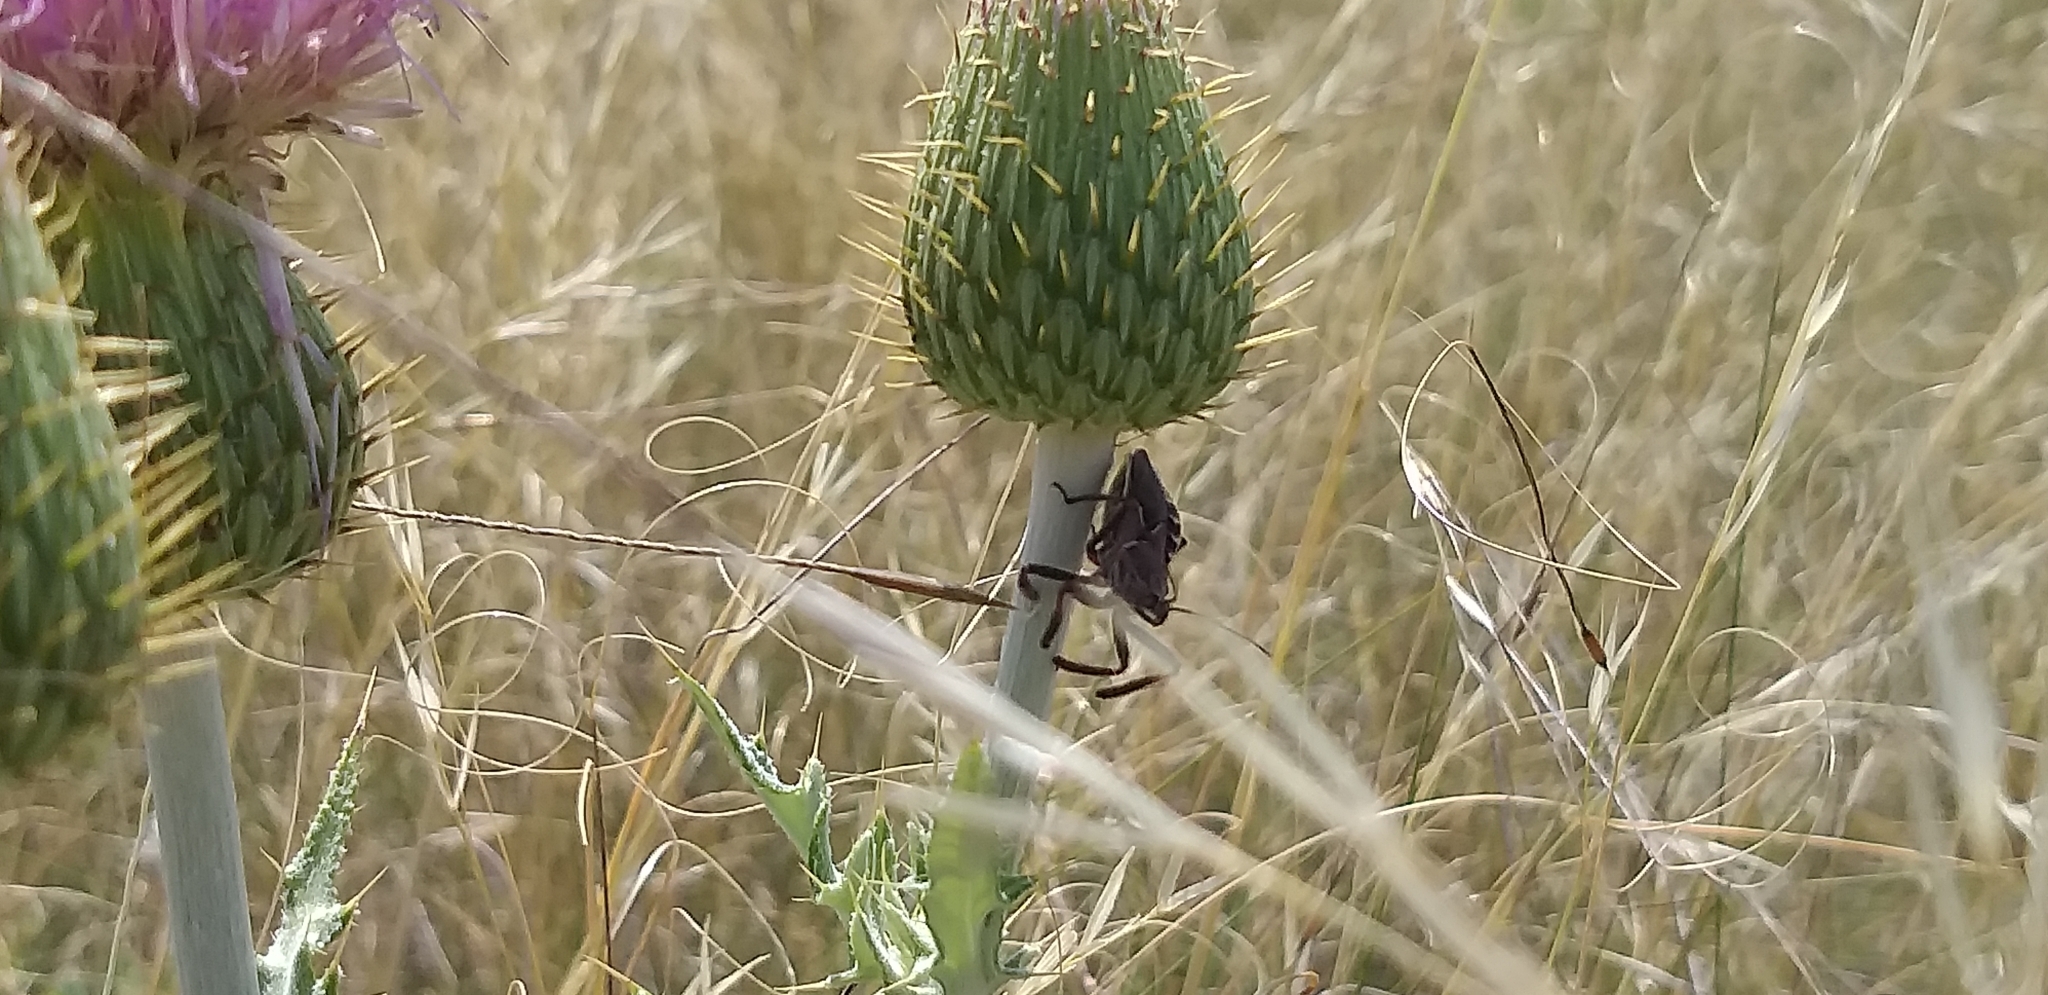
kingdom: Animalia
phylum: Arthropoda
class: Insecta
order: Hemiptera
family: Reduviidae
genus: Apiomerus
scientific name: Apiomerus spissipes
